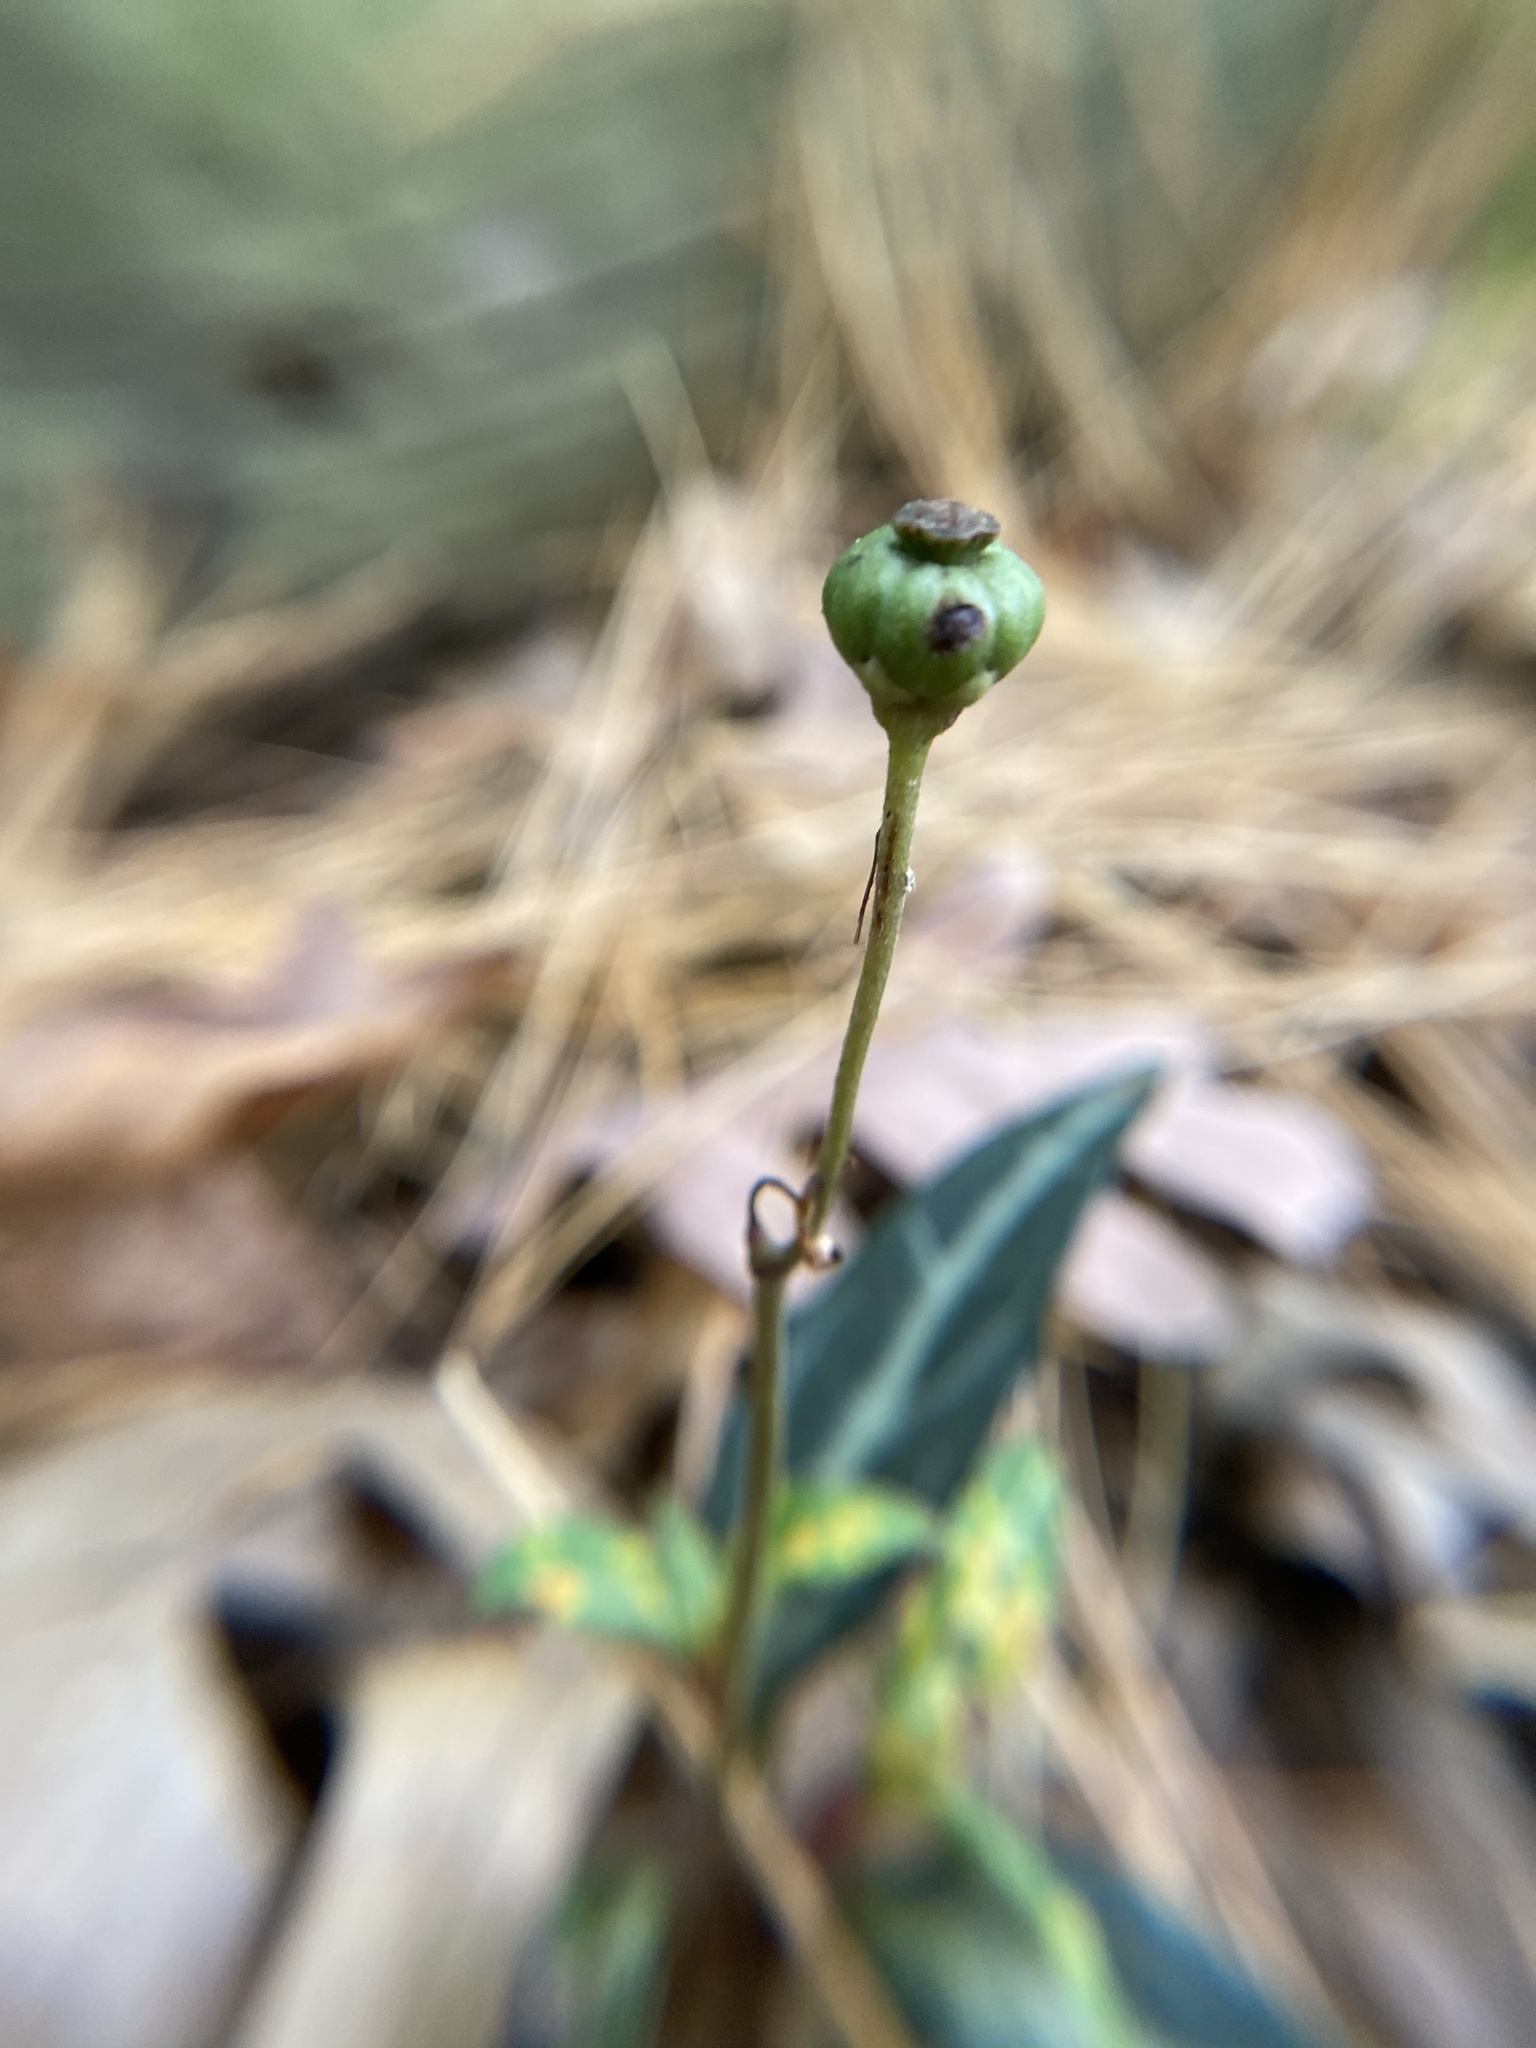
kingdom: Plantae
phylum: Tracheophyta
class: Magnoliopsida
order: Ericales
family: Ericaceae
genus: Chimaphila
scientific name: Chimaphila maculata
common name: Spotted pipsissewa
